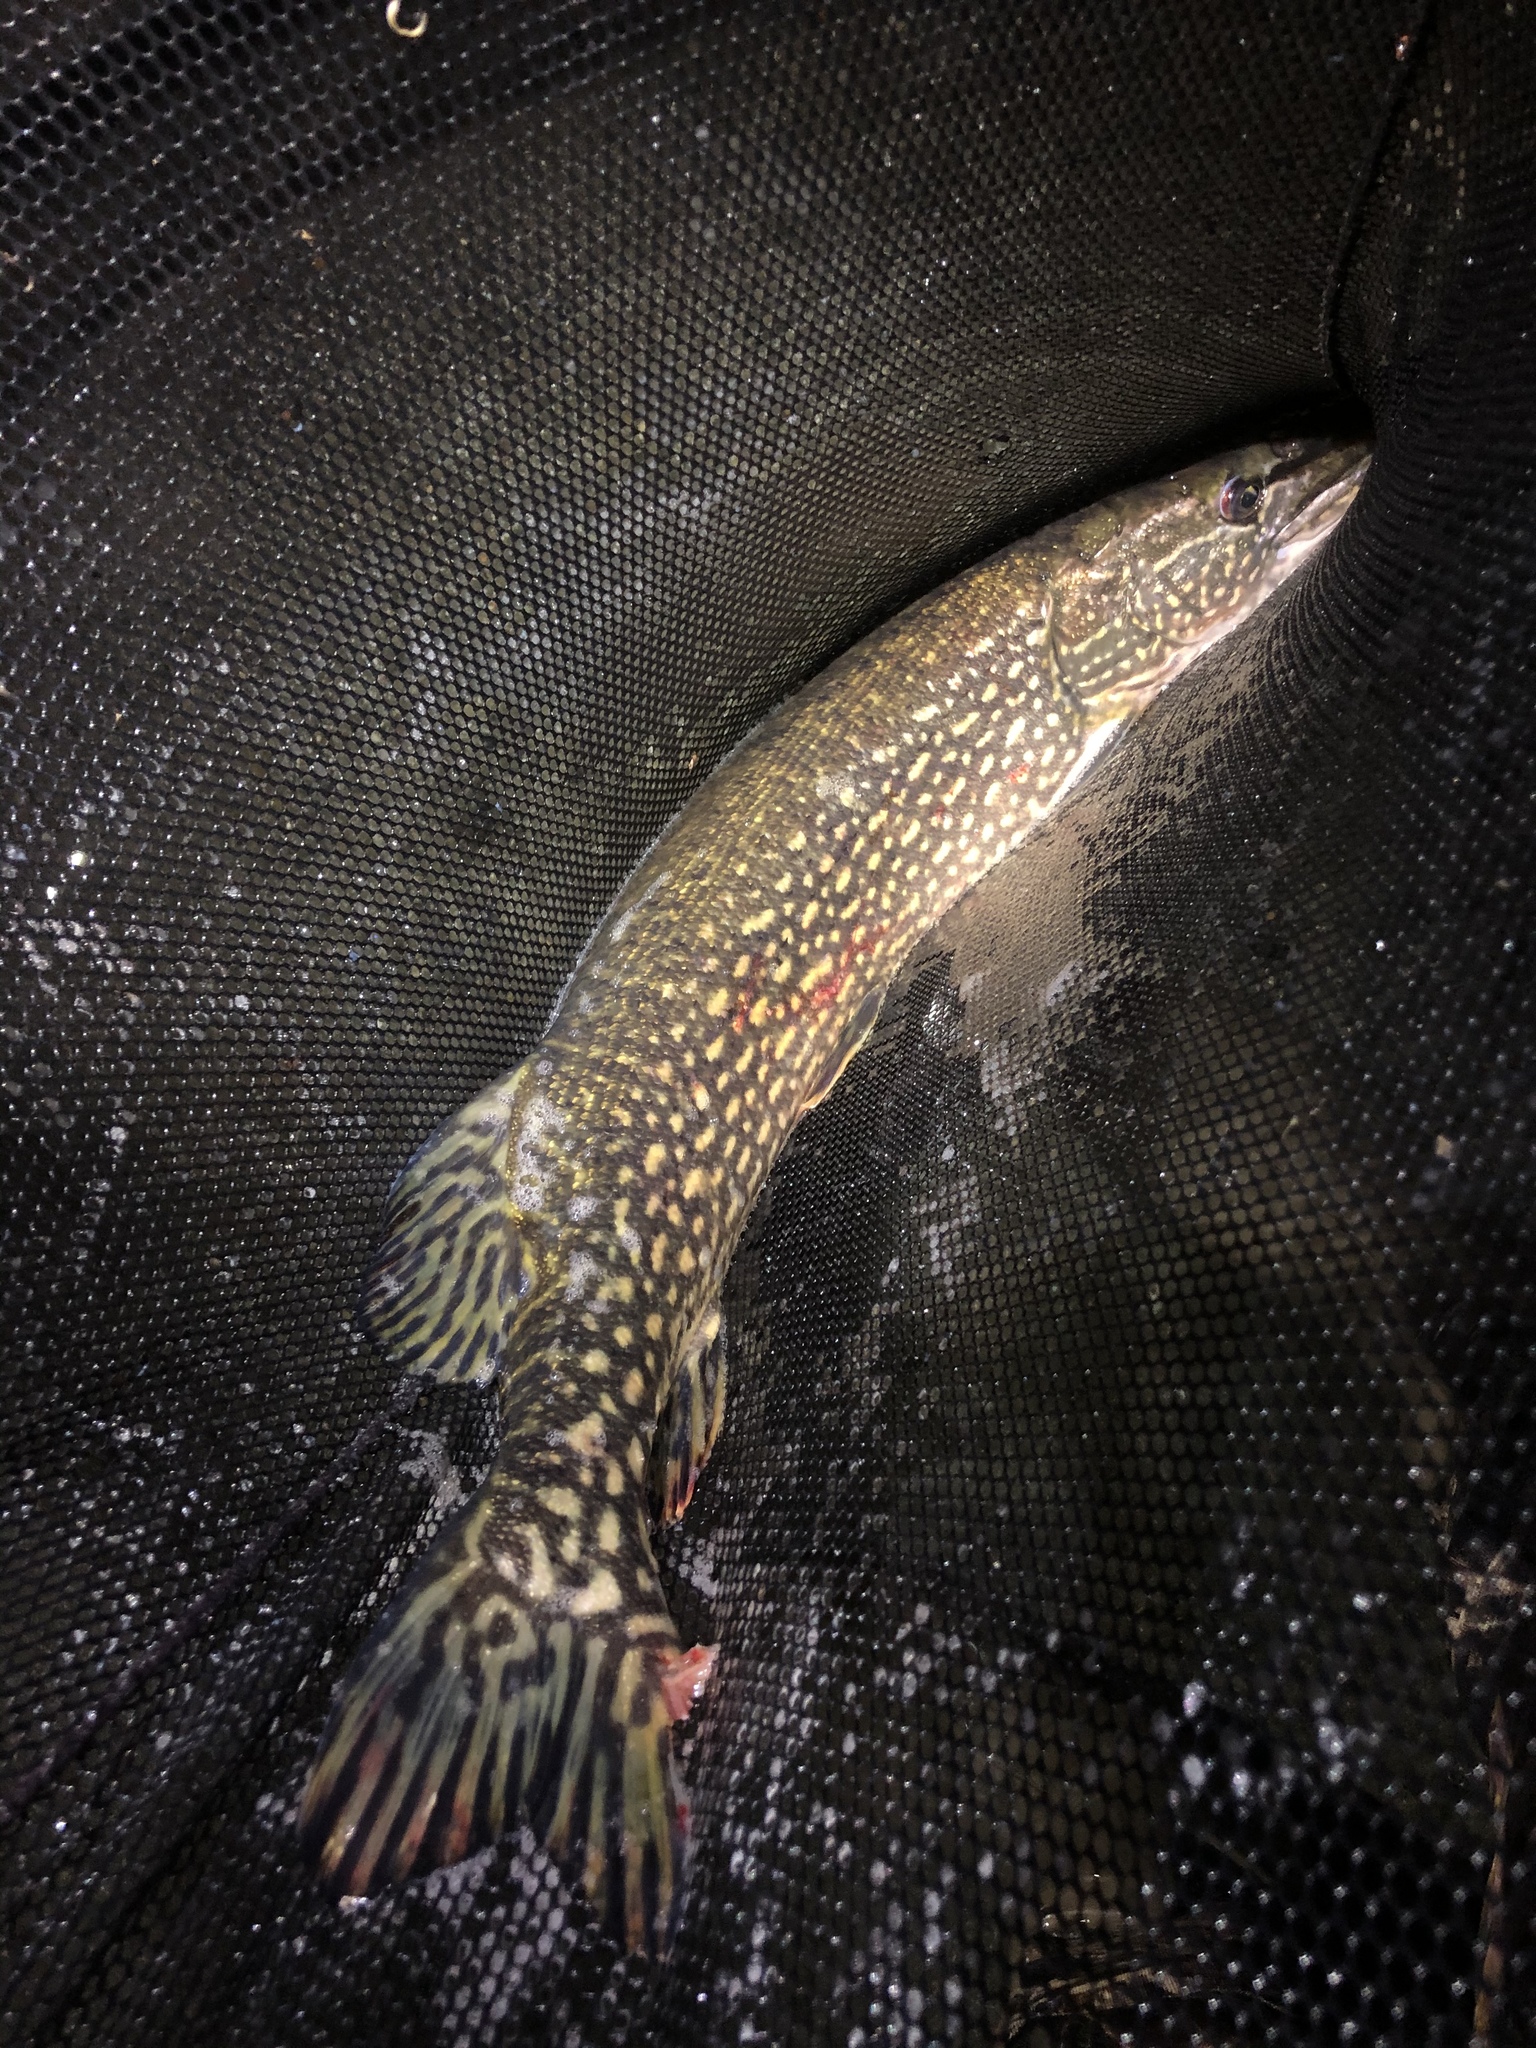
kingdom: Animalia
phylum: Chordata
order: Esociformes
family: Esocidae
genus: Esox
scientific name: Esox lucius
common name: Northern pike
